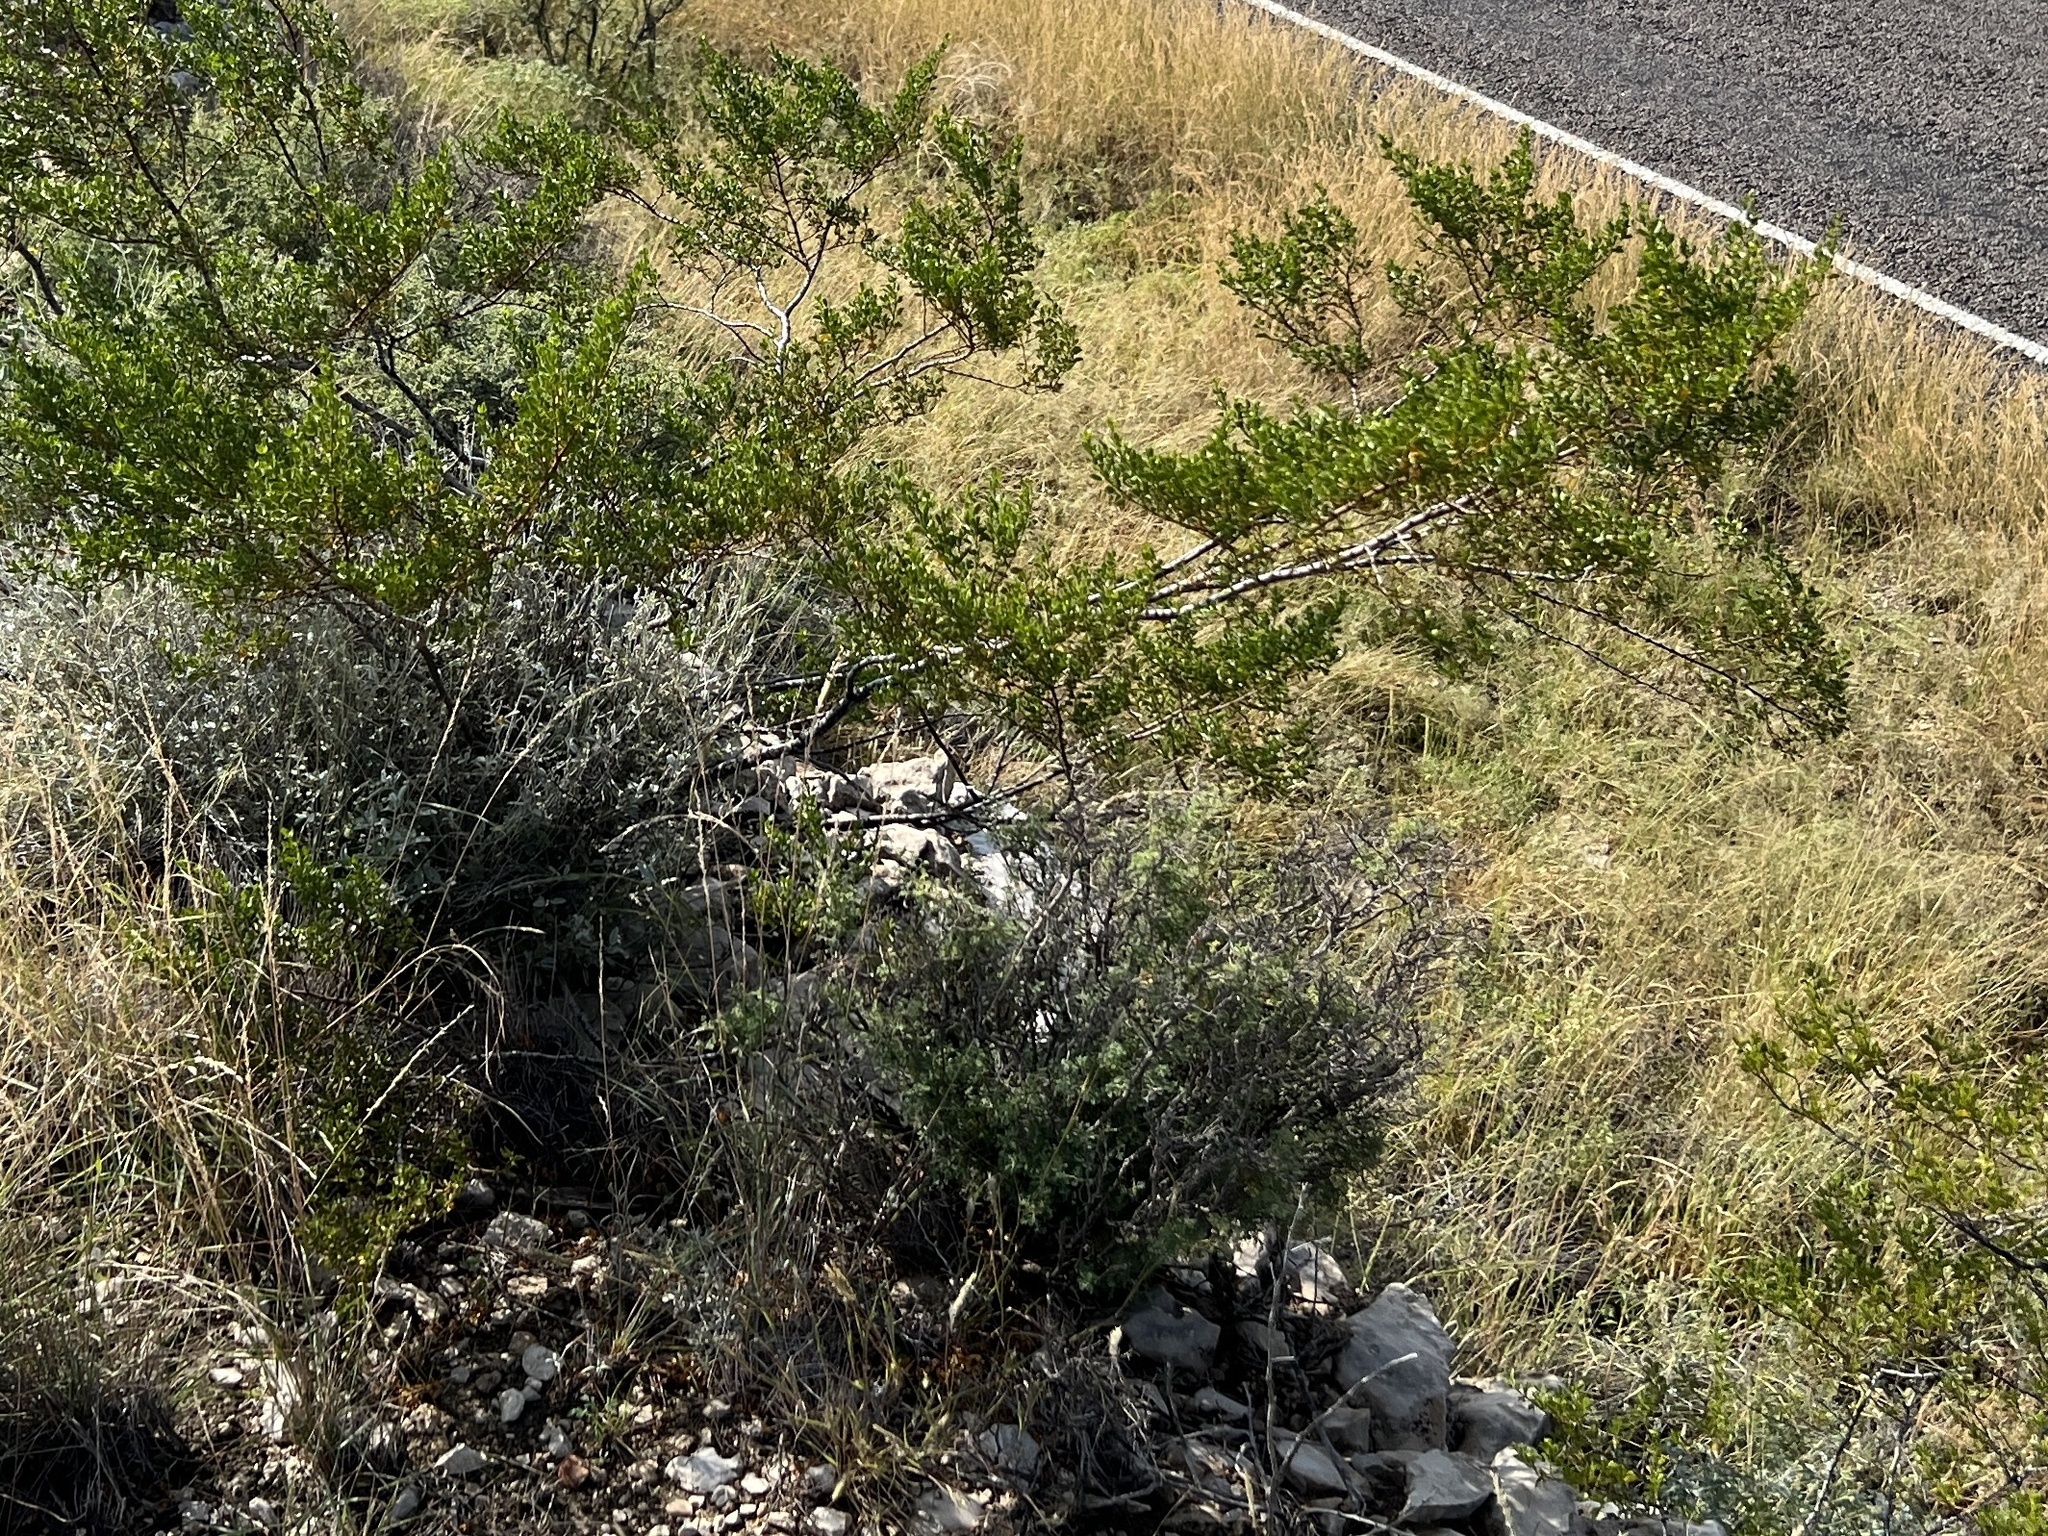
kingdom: Plantae
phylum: Tracheophyta
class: Magnoliopsida
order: Zygophyllales
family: Zygophyllaceae
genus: Larrea
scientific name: Larrea tridentata
